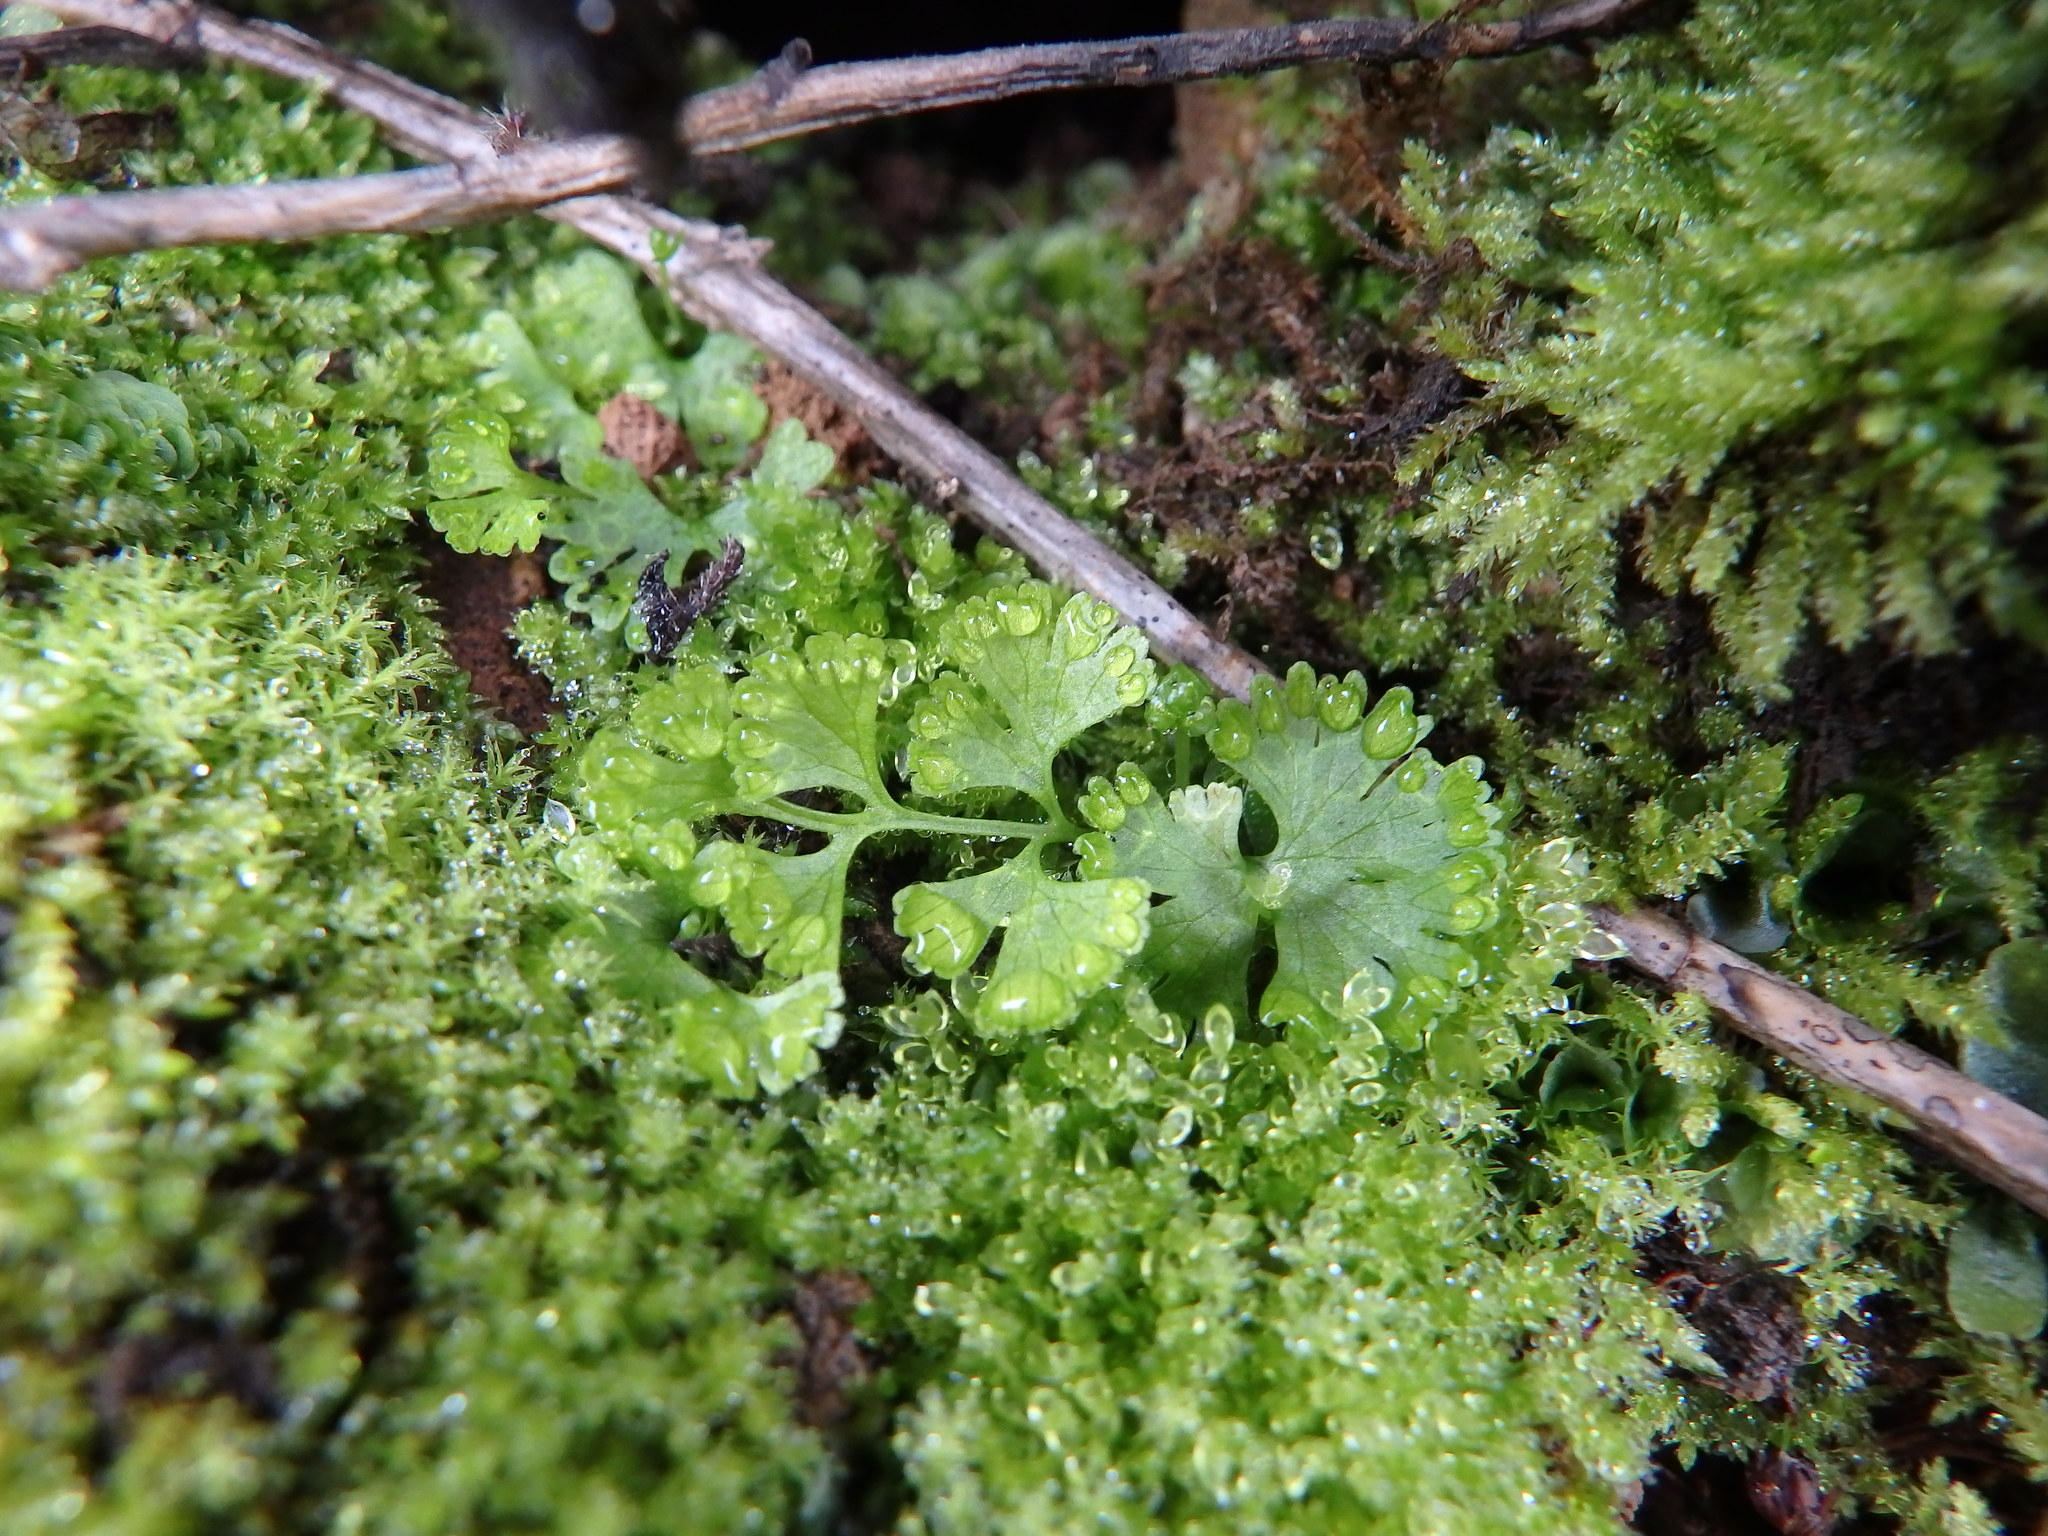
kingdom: Plantae
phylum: Tracheophyta
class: Polypodiopsida
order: Polypodiales
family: Pteridaceae
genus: Anogramma
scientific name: Anogramma leptophylla
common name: Jersey fern
